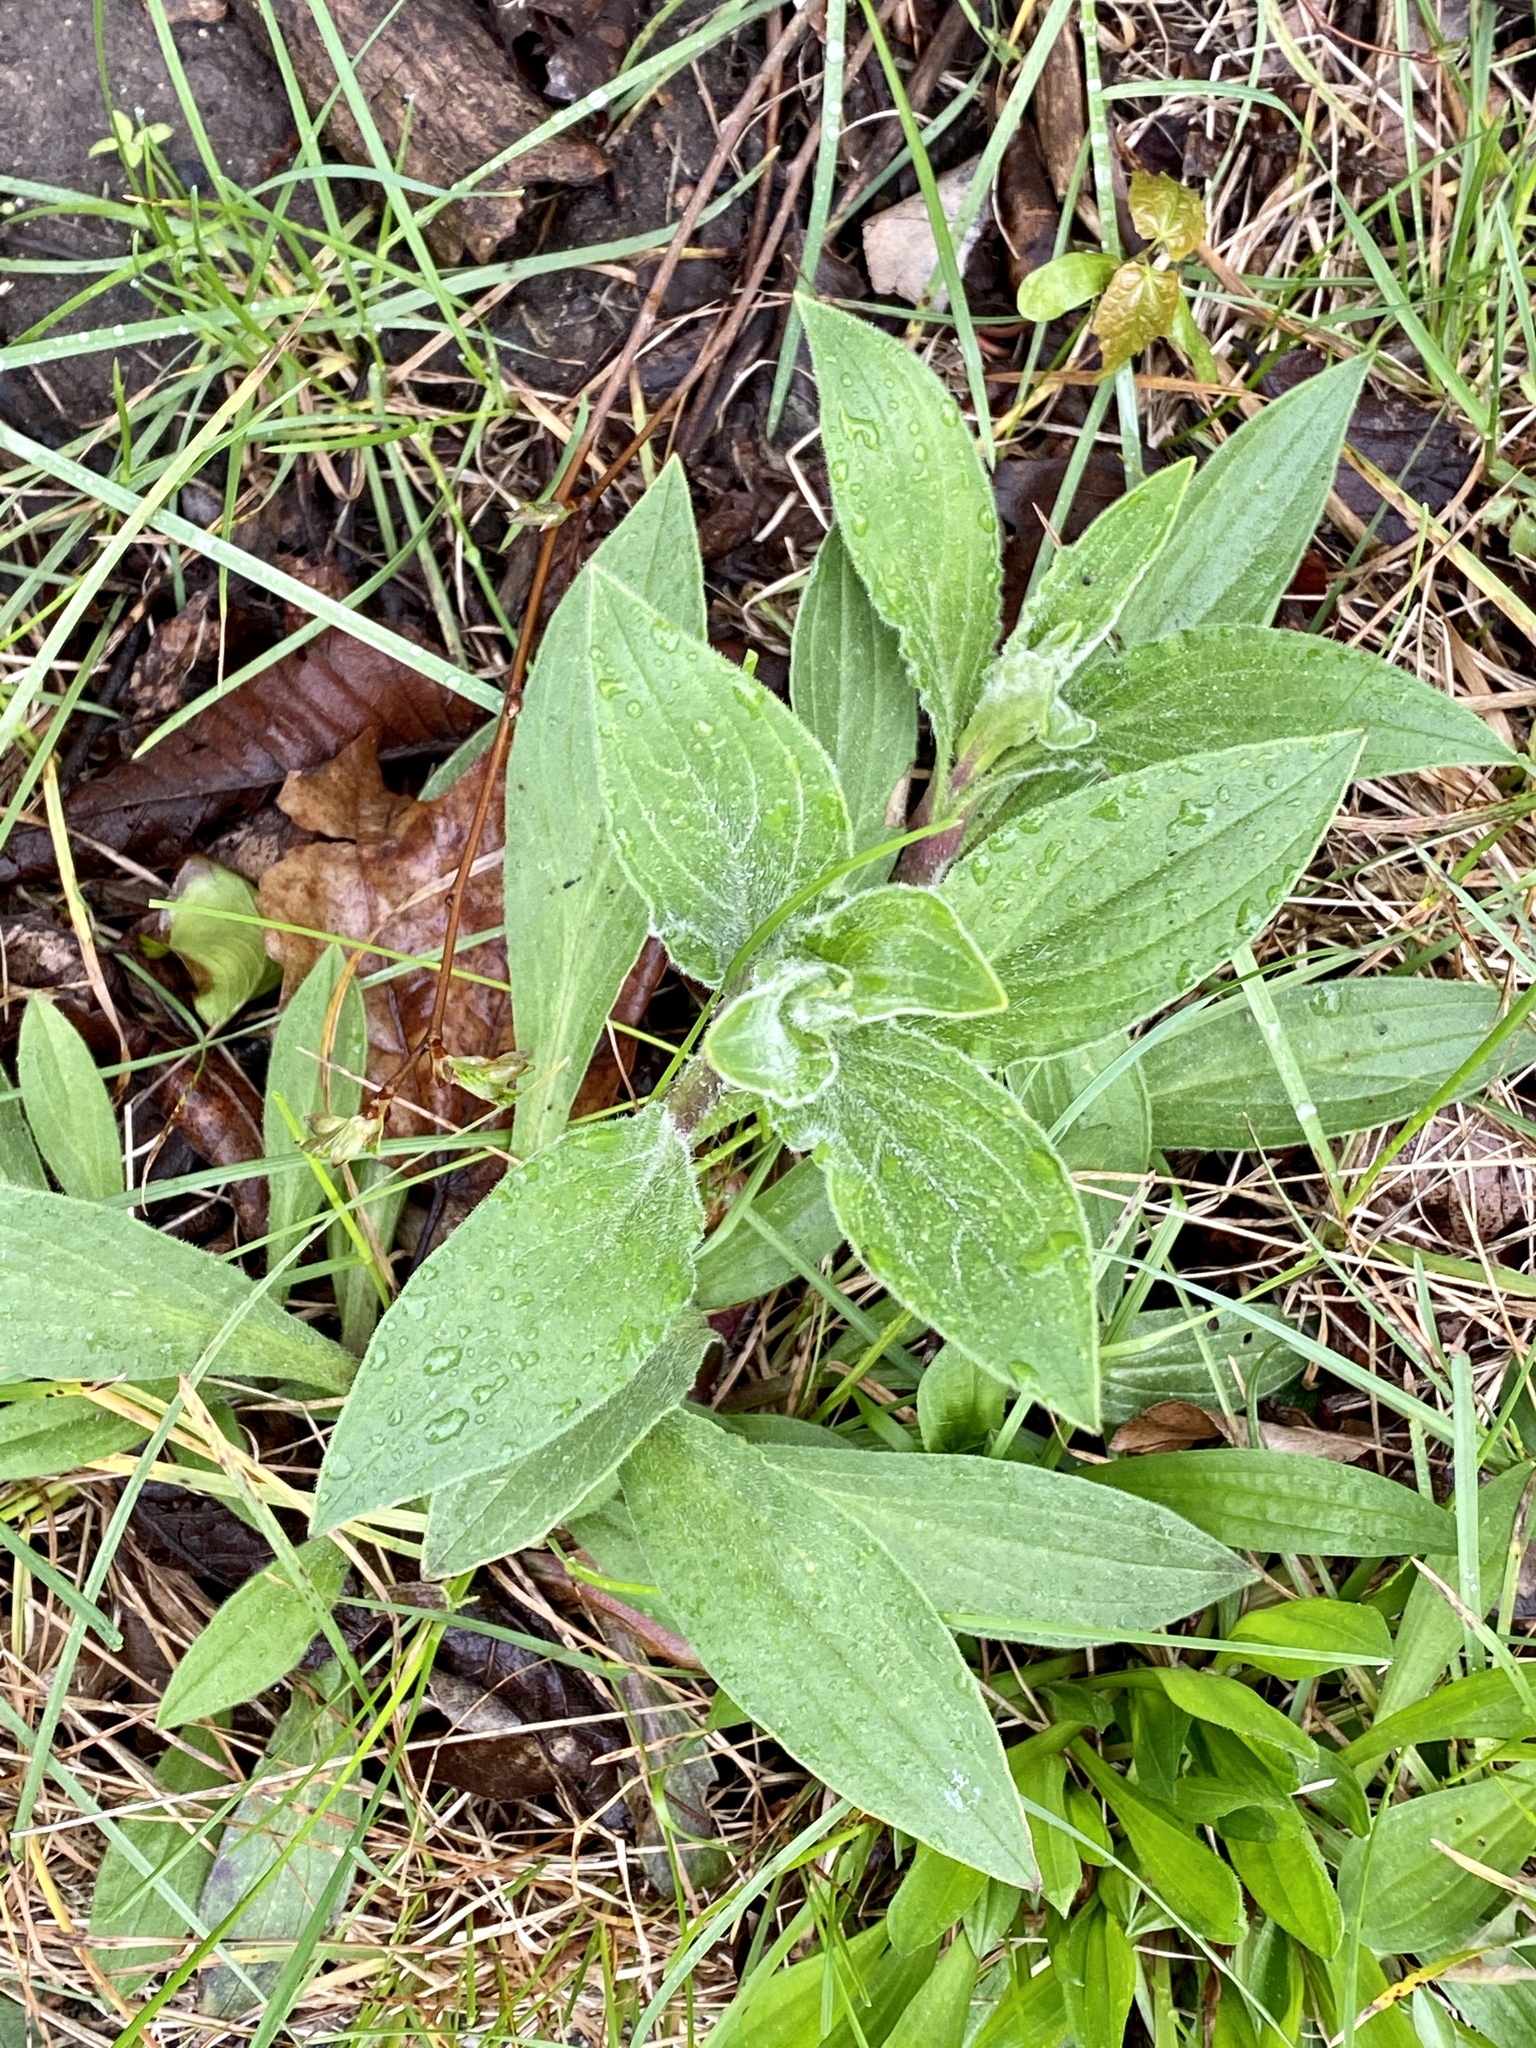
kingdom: Plantae
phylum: Tracheophyta
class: Magnoliopsida
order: Caryophyllales
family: Caryophyllaceae
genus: Silene
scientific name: Silene latifolia
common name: White campion
